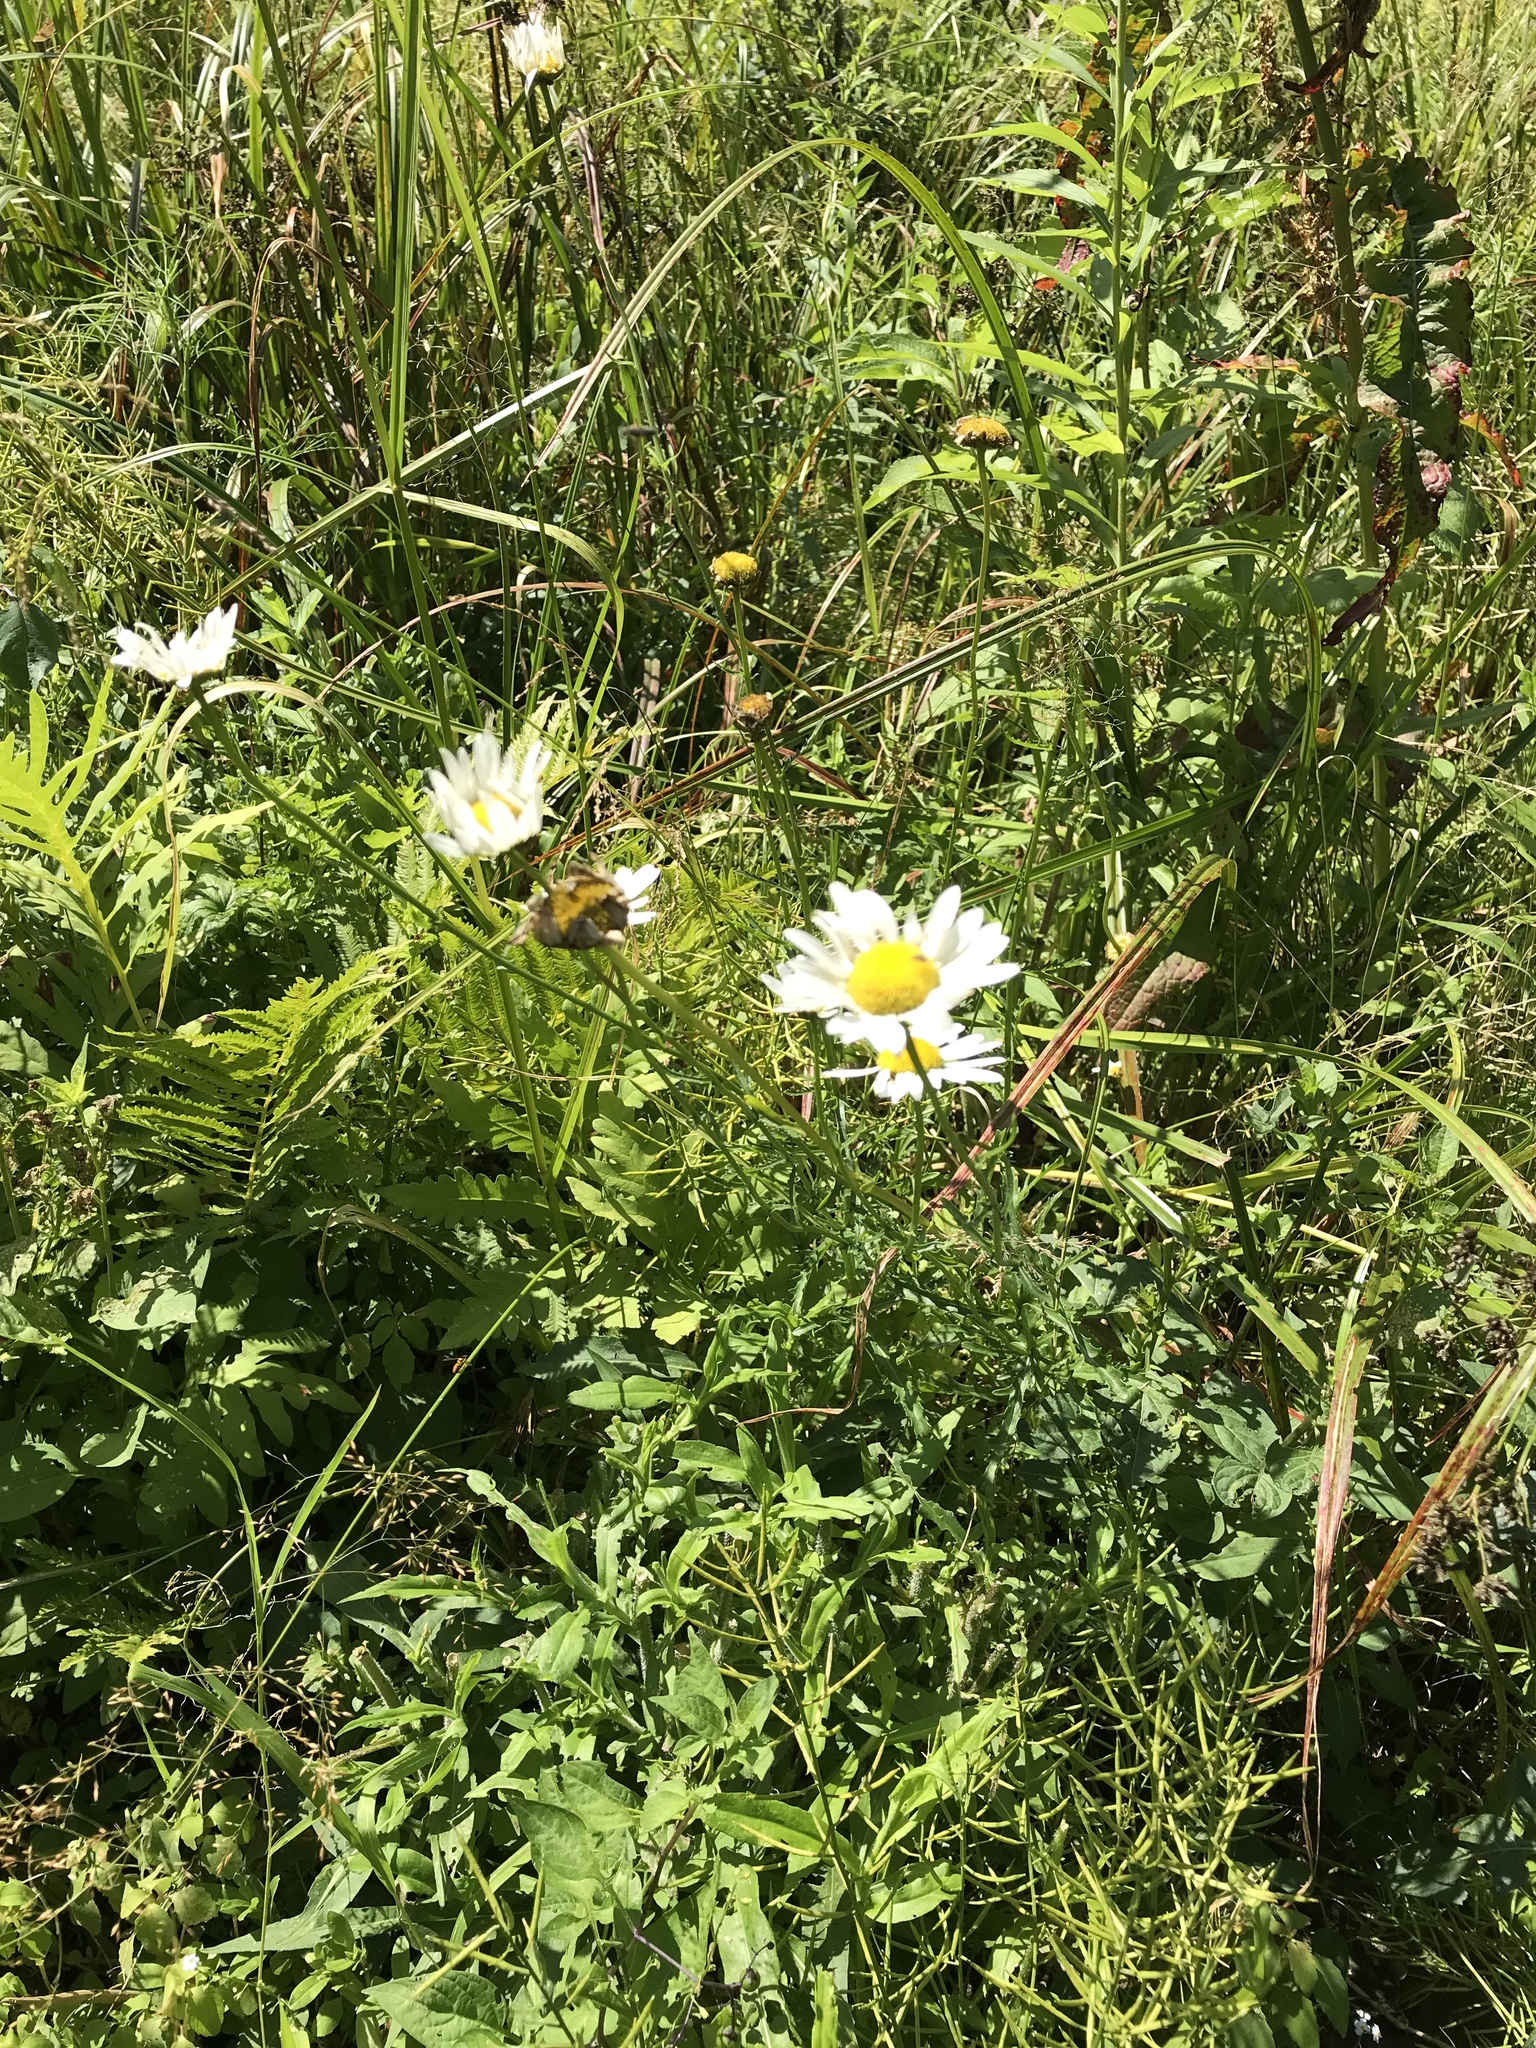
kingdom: Plantae
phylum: Tracheophyta
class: Magnoliopsida
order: Asterales
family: Asteraceae
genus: Leucanthemum
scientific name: Leucanthemum vulgare
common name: Oxeye daisy
